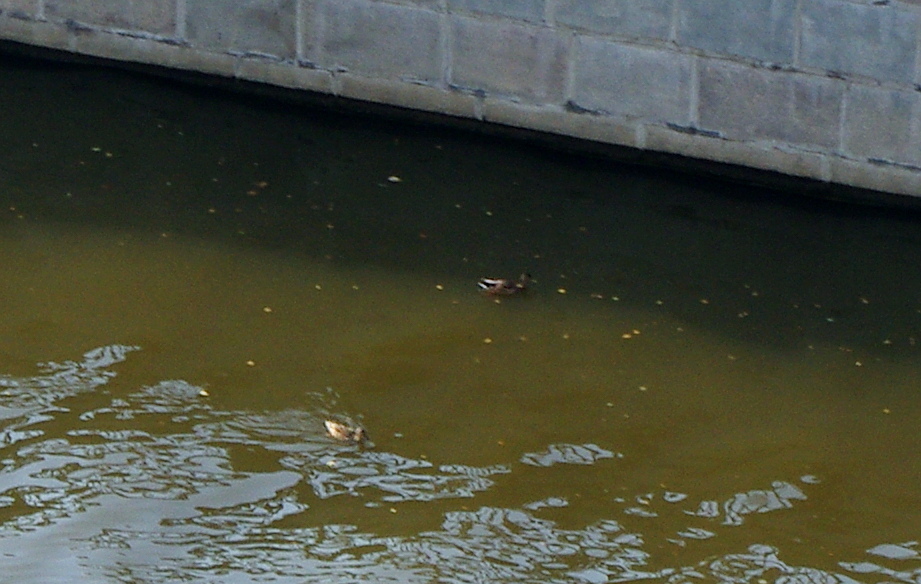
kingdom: Animalia
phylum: Chordata
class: Aves
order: Anseriformes
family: Anatidae
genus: Anas
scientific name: Anas platyrhynchos
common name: Mallard
